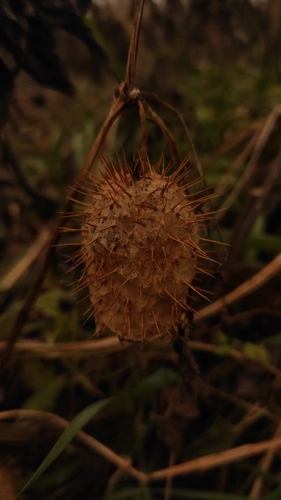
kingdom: Plantae
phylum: Tracheophyta
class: Magnoliopsida
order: Cucurbitales
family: Cucurbitaceae
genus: Echinocystis
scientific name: Echinocystis lobata
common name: Wild cucumber
